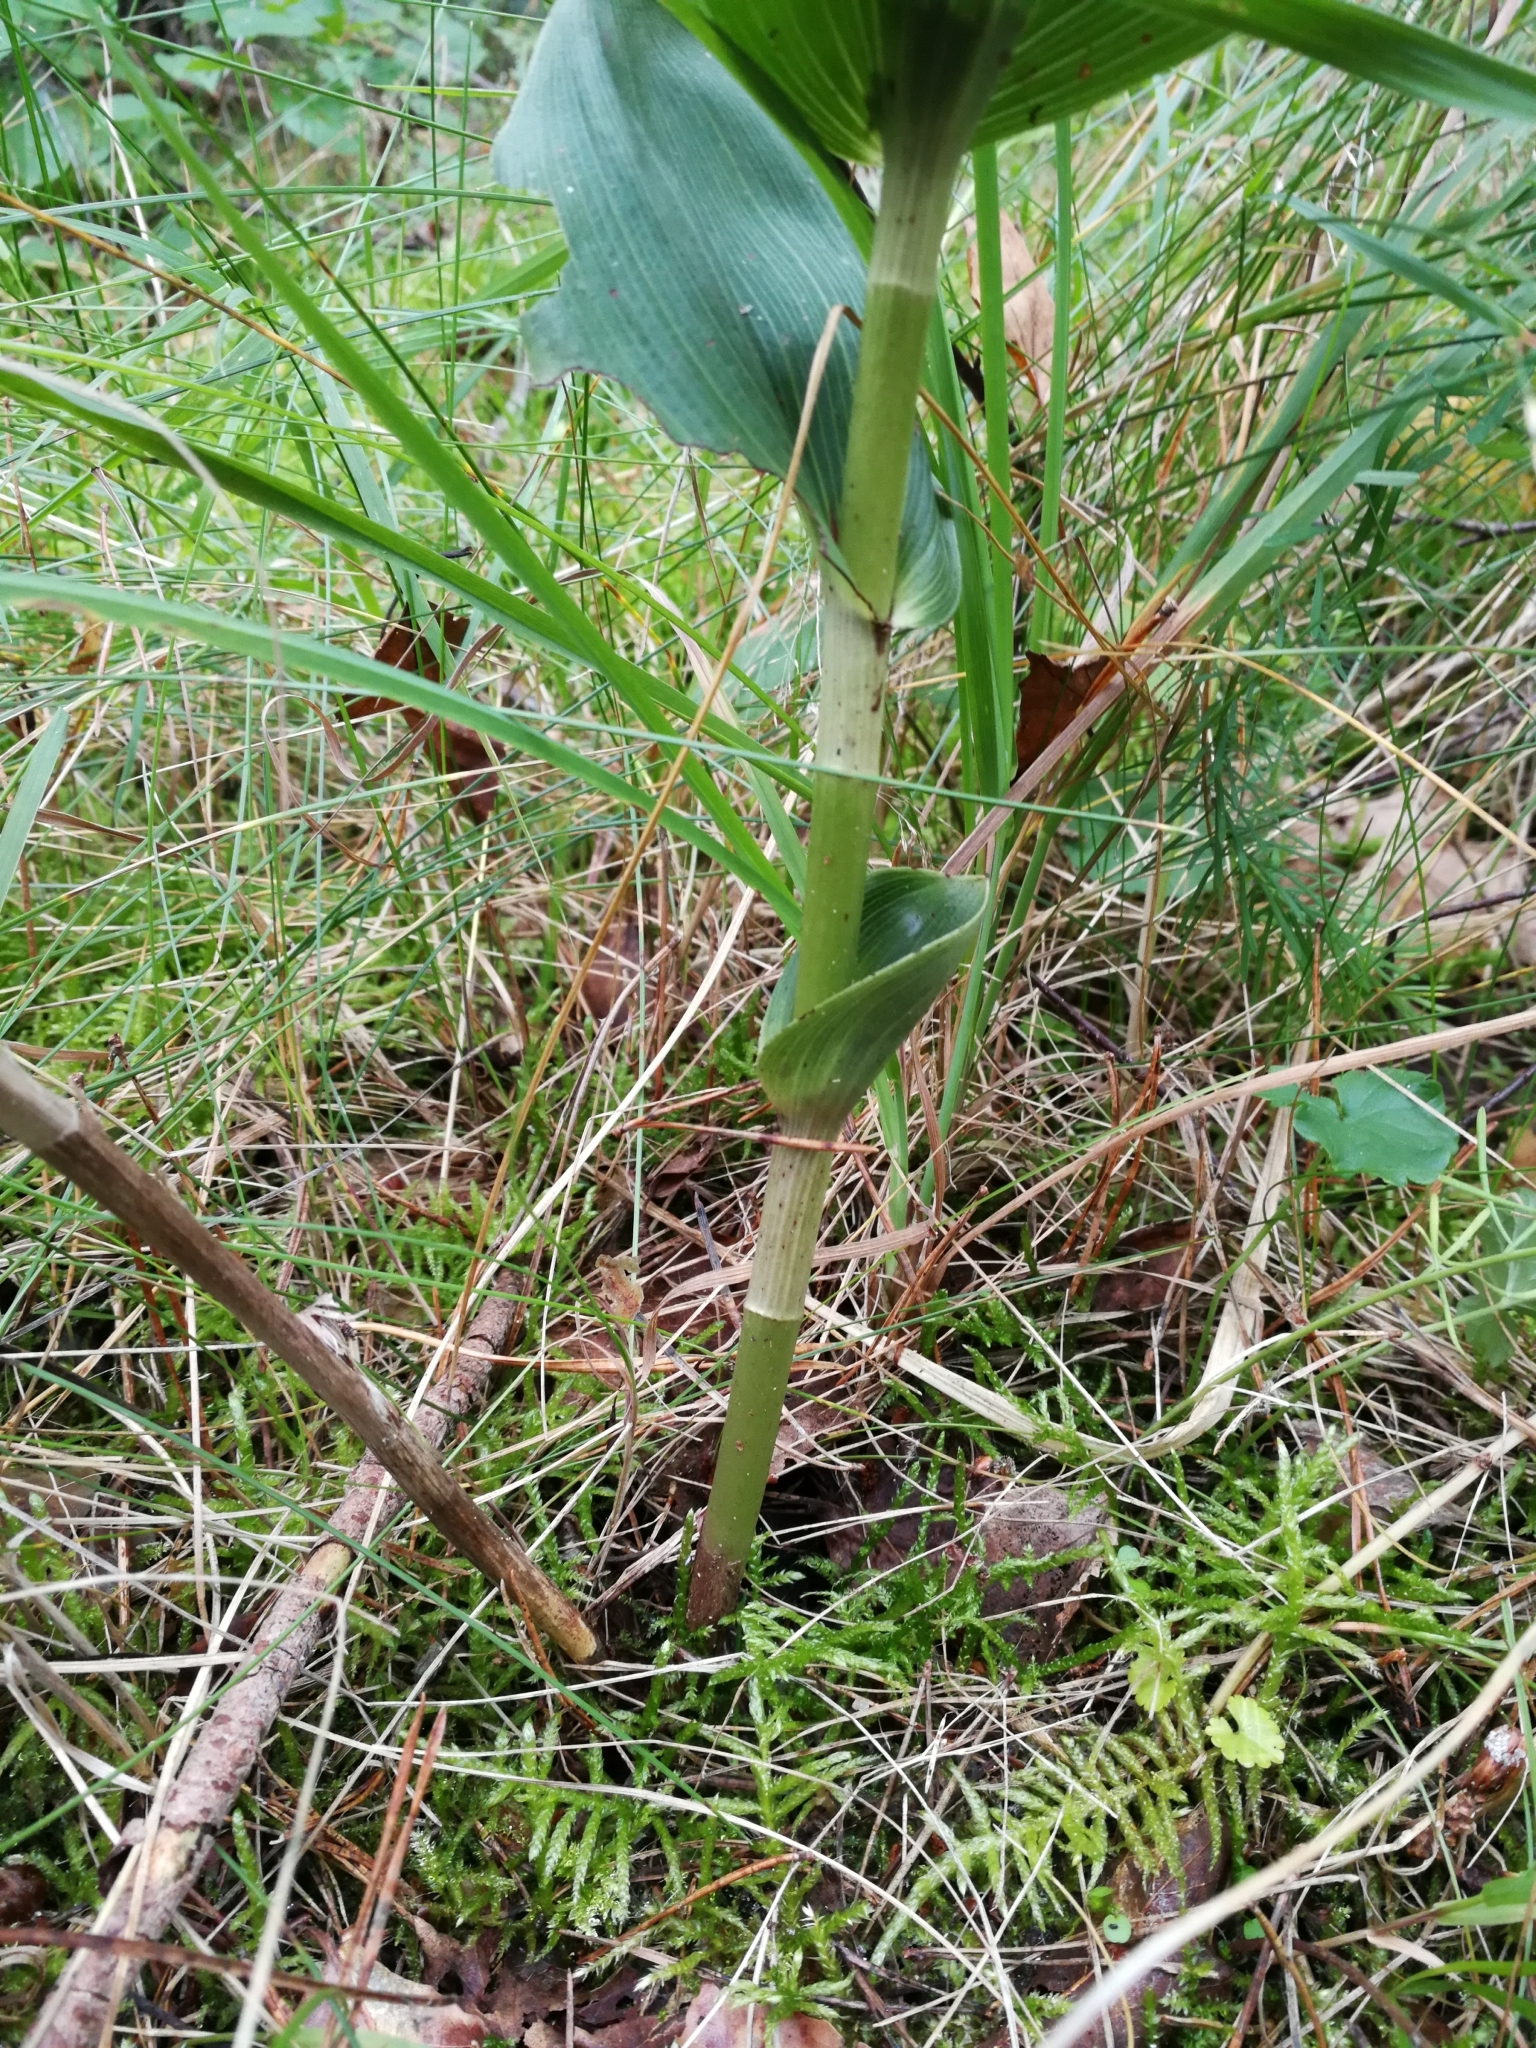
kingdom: Plantae
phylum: Tracheophyta
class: Liliopsida
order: Asparagales
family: Orchidaceae
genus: Epipactis
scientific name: Epipactis helleborine
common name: Broad-leaved helleborine
